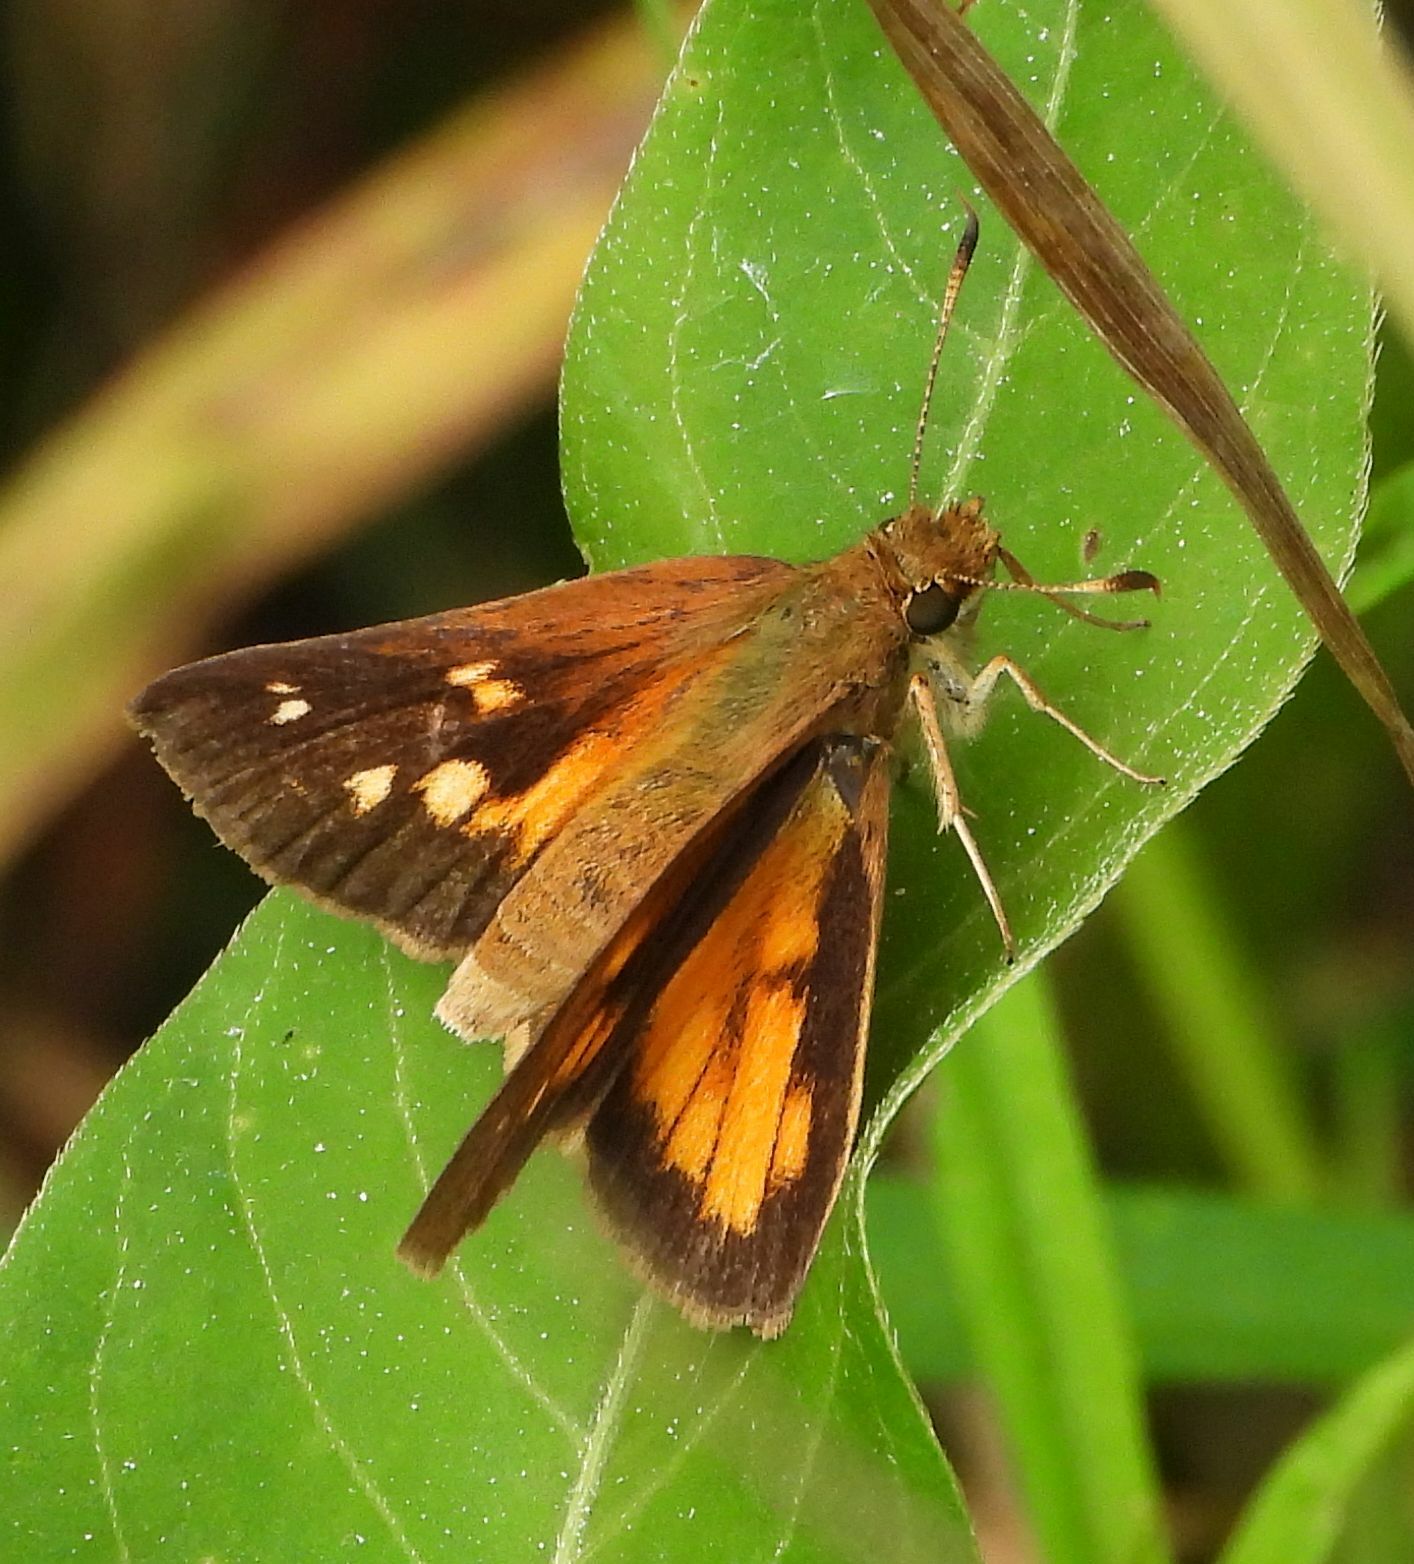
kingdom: Animalia
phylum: Arthropoda
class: Insecta
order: Lepidoptera
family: Hesperiidae
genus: Poanes
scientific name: Poanes viator
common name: Broad-winged skipper
